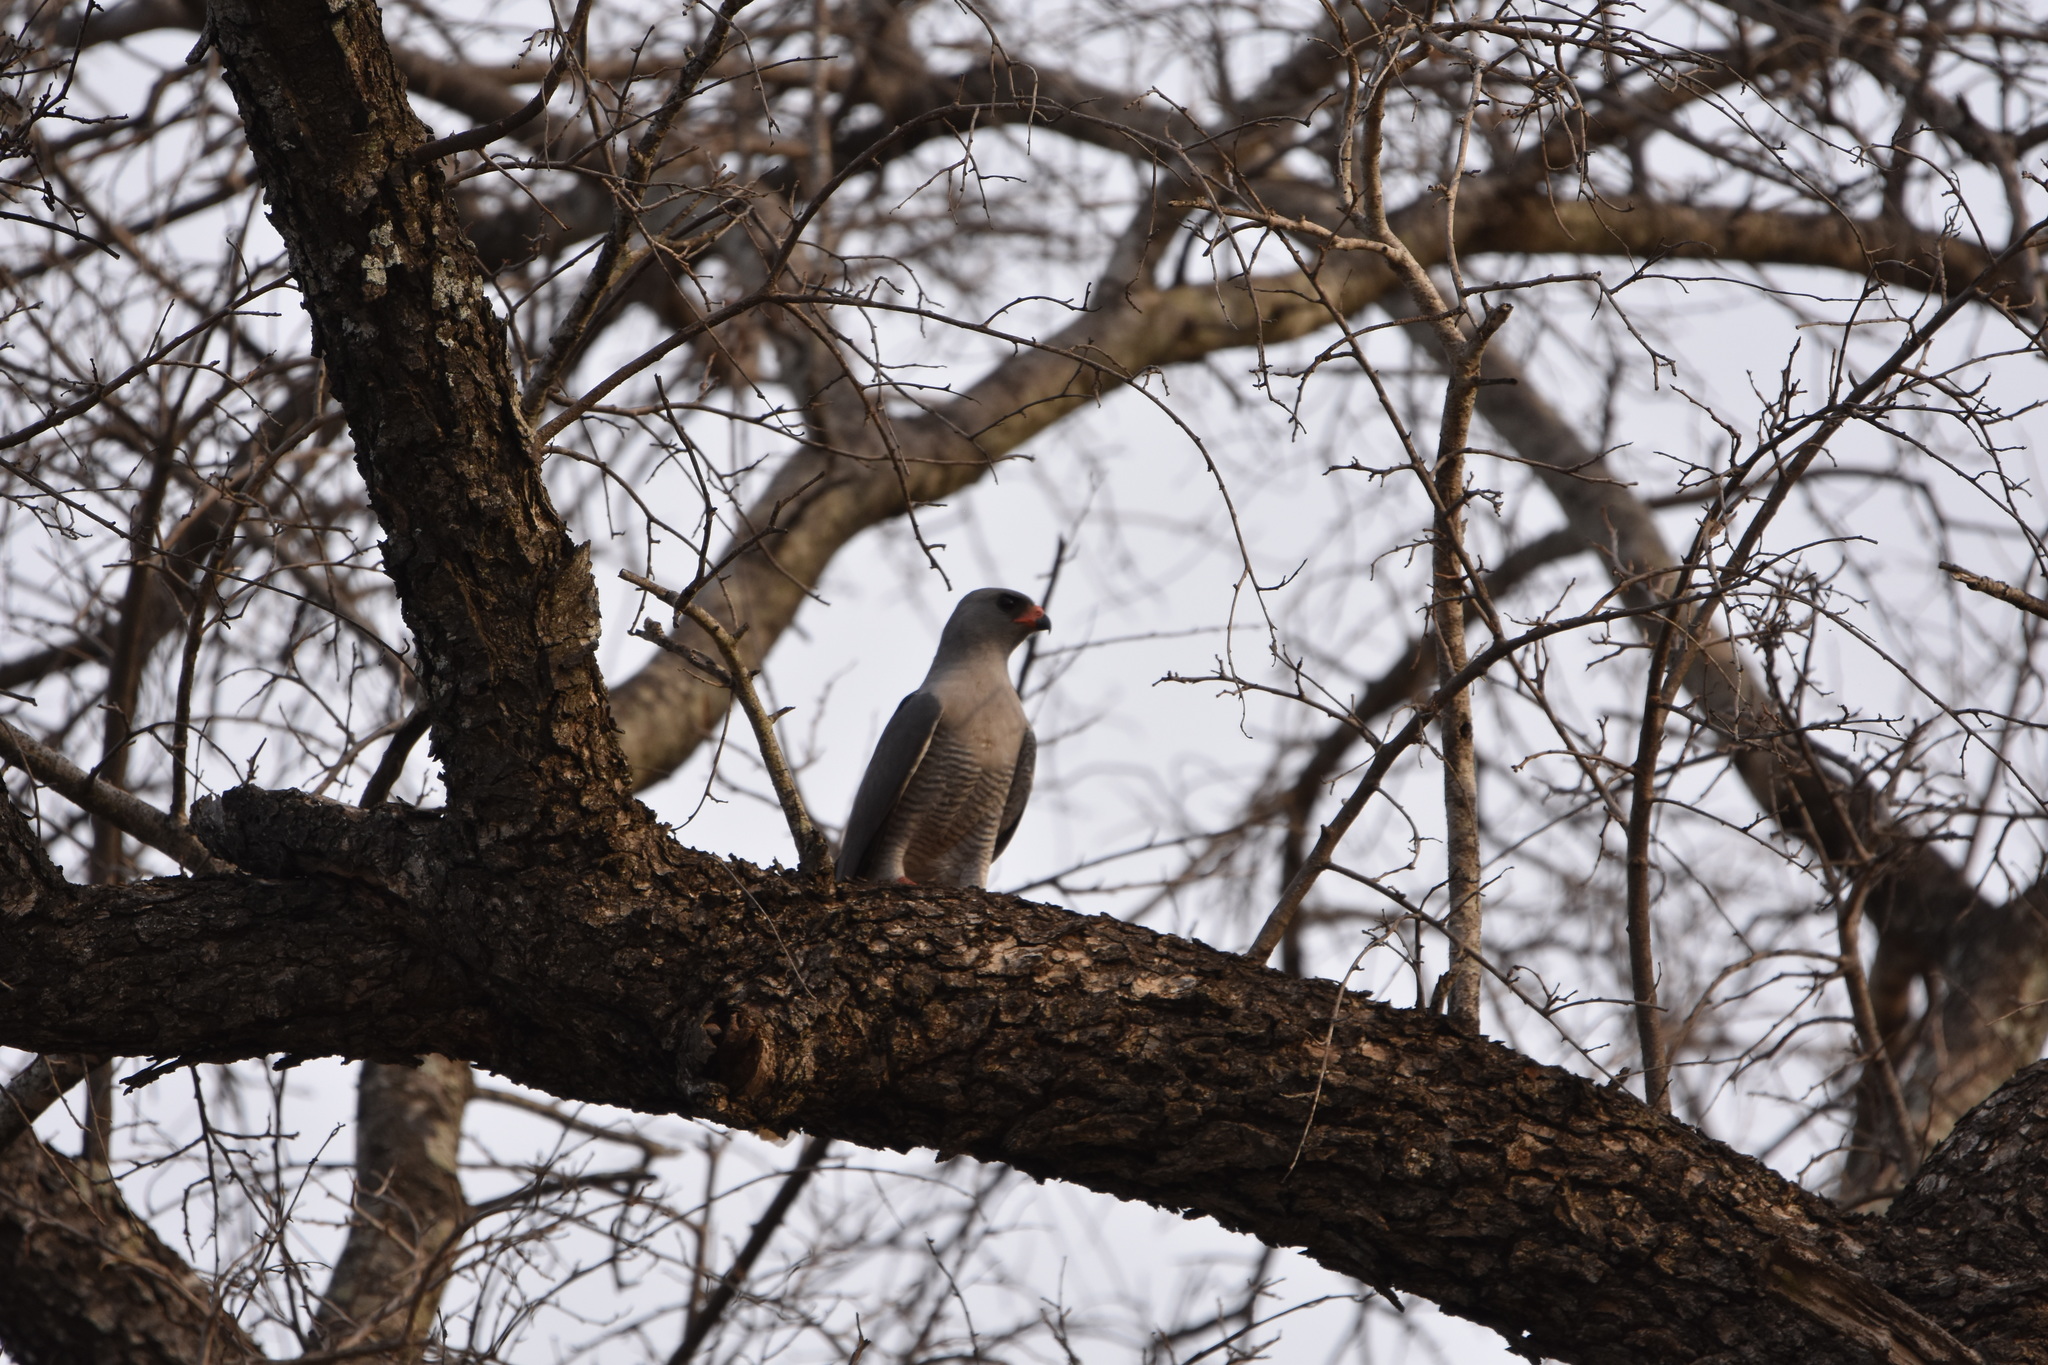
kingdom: Animalia
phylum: Chordata
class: Aves
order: Accipitriformes
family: Accipitridae
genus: Micronisus
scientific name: Micronisus gabar
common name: Gabar goshawk
